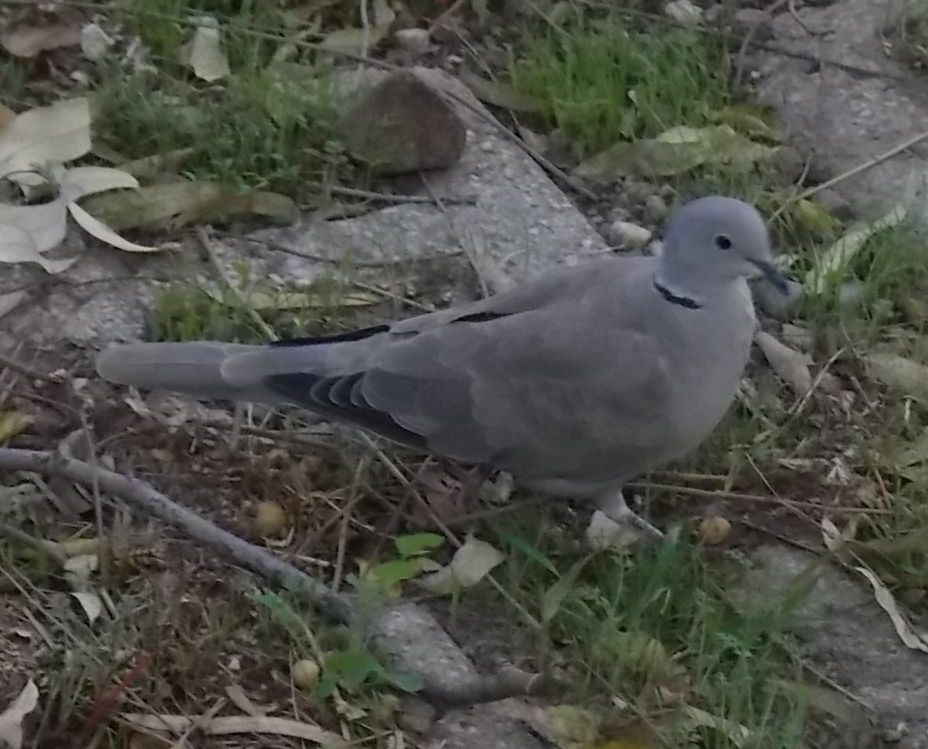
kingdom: Animalia
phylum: Chordata
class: Aves
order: Columbiformes
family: Columbidae
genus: Streptopelia
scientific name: Streptopelia decaocto
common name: Eurasian collared dove
